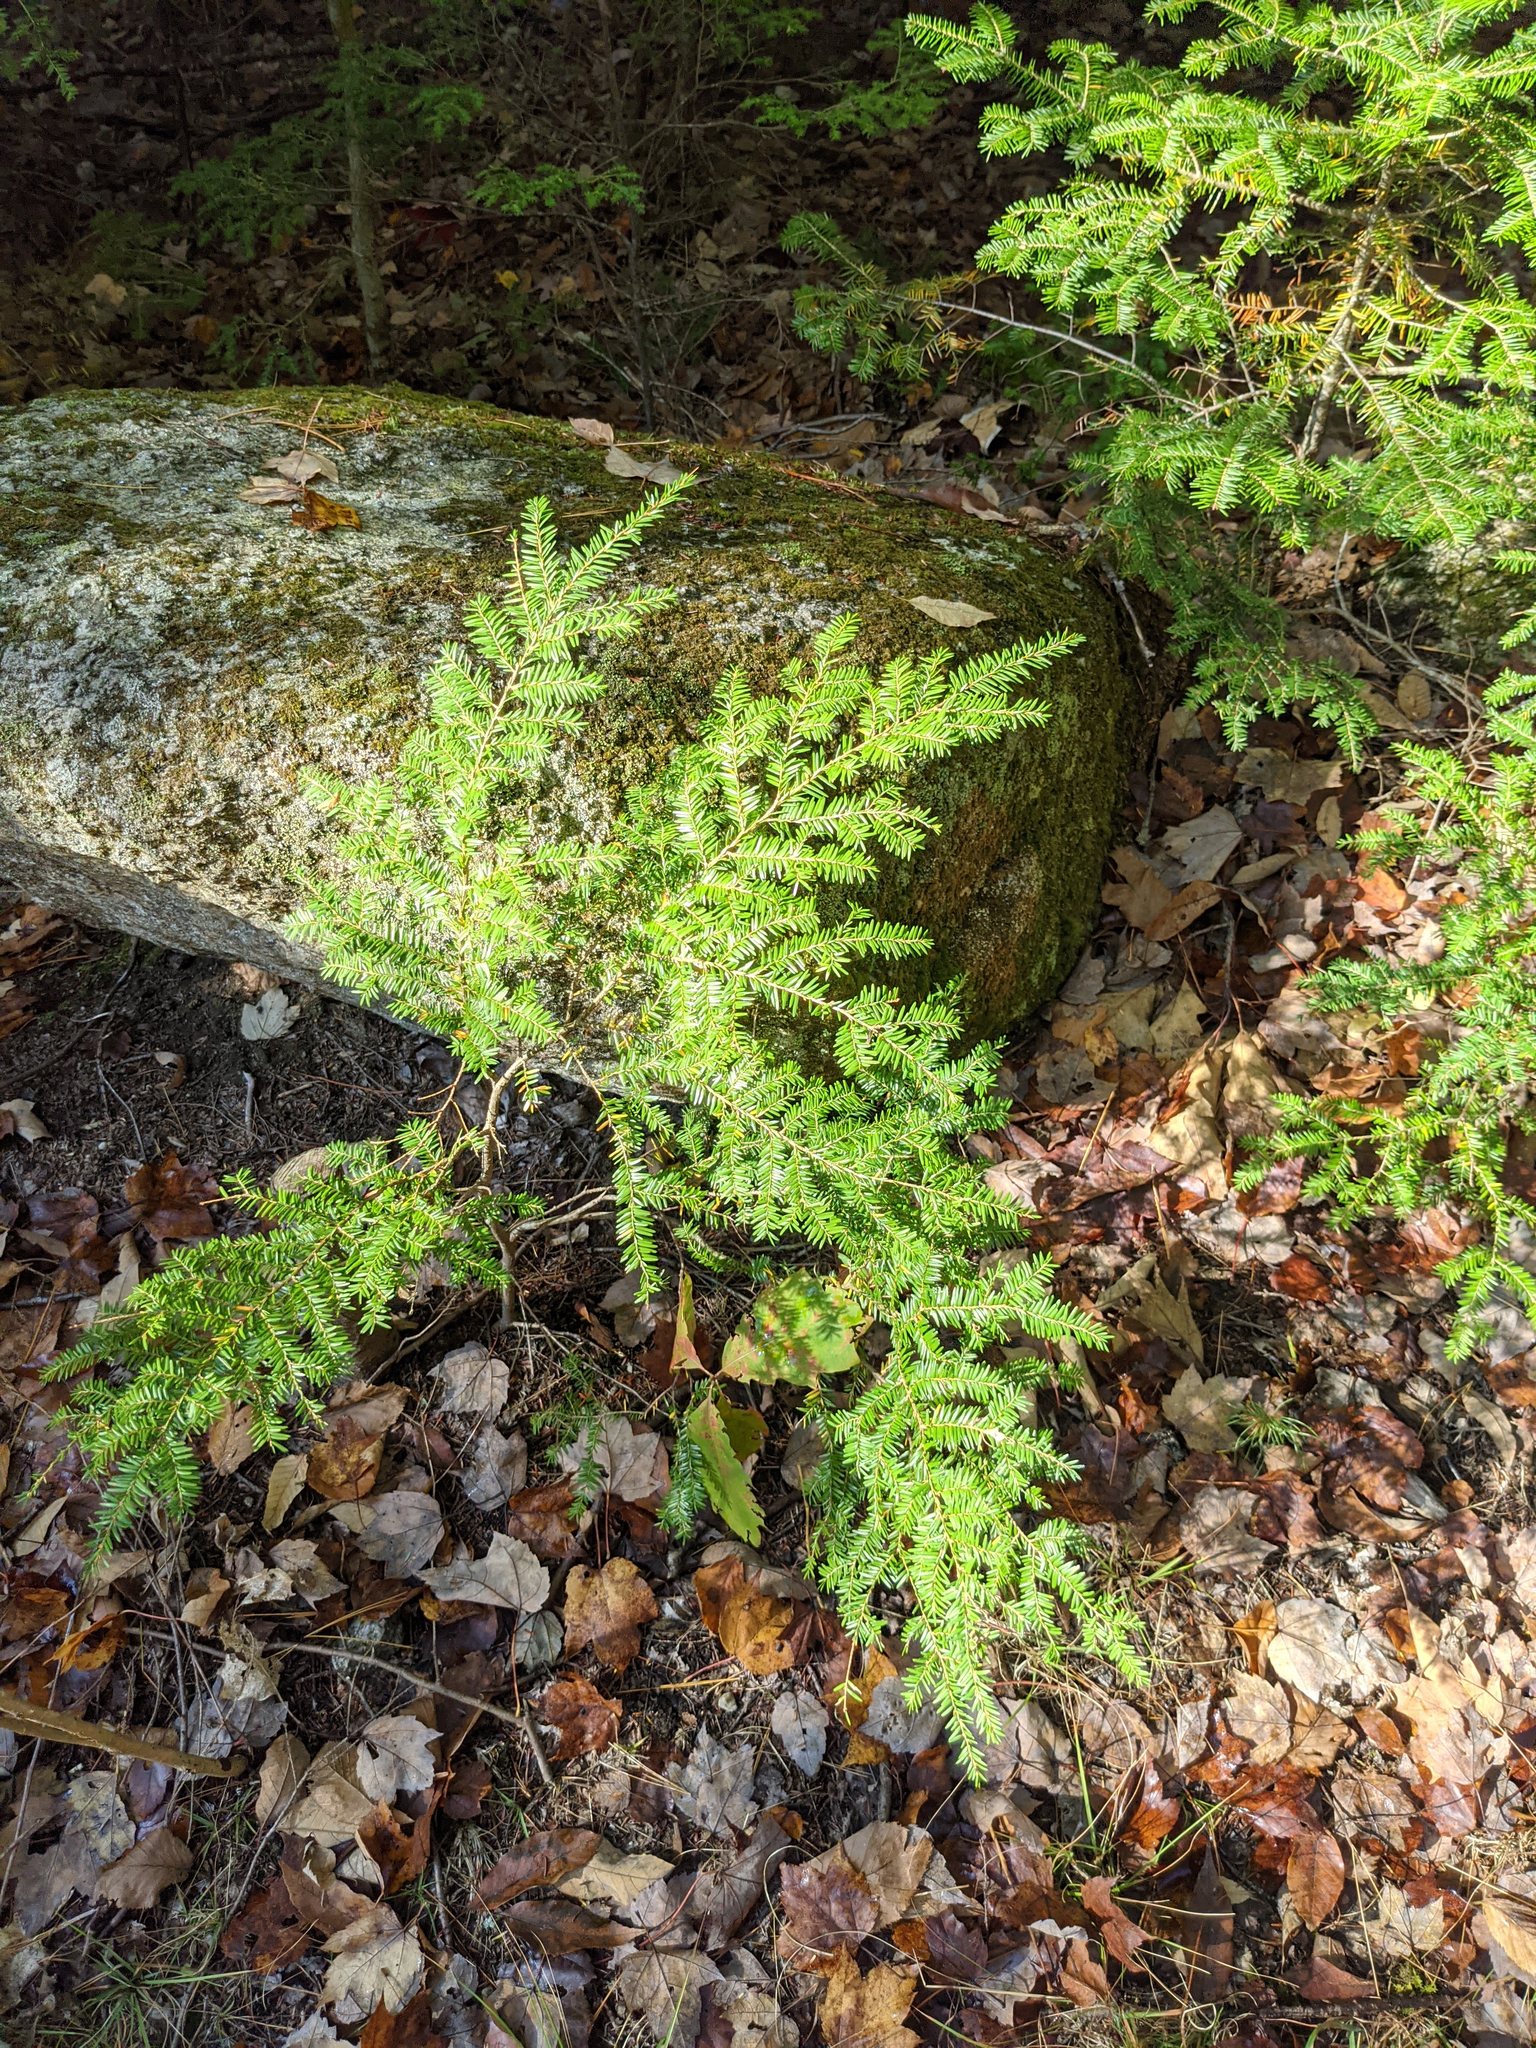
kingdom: Plantae
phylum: Tracheophyta
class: Pinopsida
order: Pinales
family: Pinaceae
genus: Tsuga
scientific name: Tsuga canadensis
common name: Eastern hemlock
